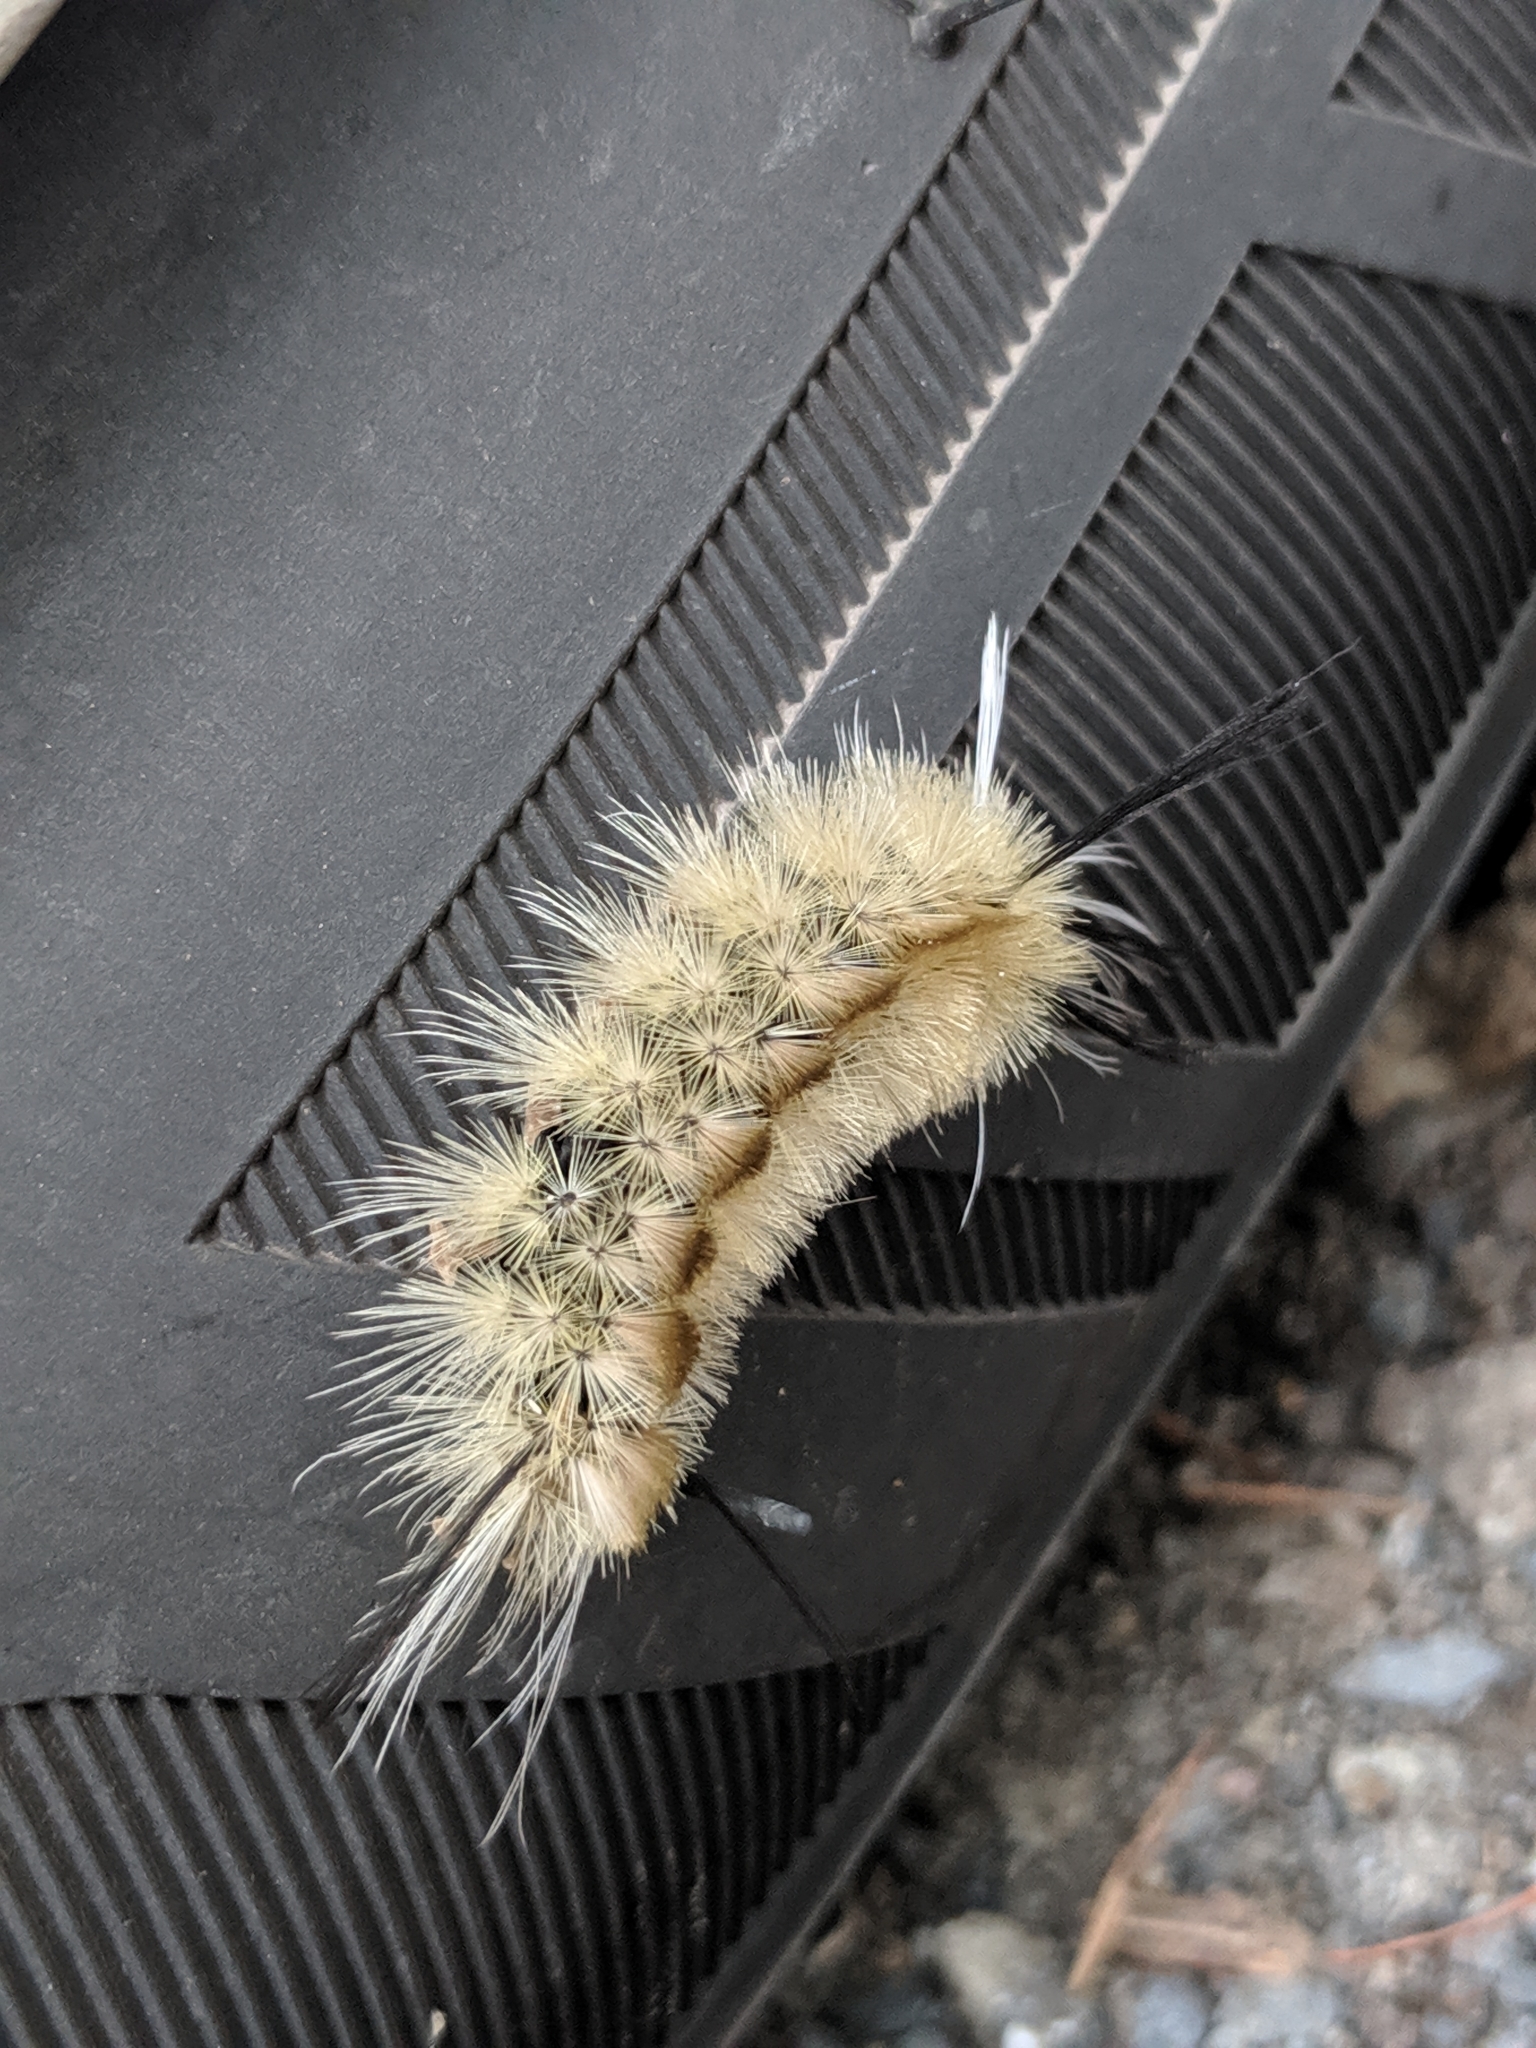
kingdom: Animalia
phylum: Arthropoda
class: Insecta
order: Lepidoptera
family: Erebidae
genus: Halysidota
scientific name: Halysidota tessellaris
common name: Banded tussock moth
